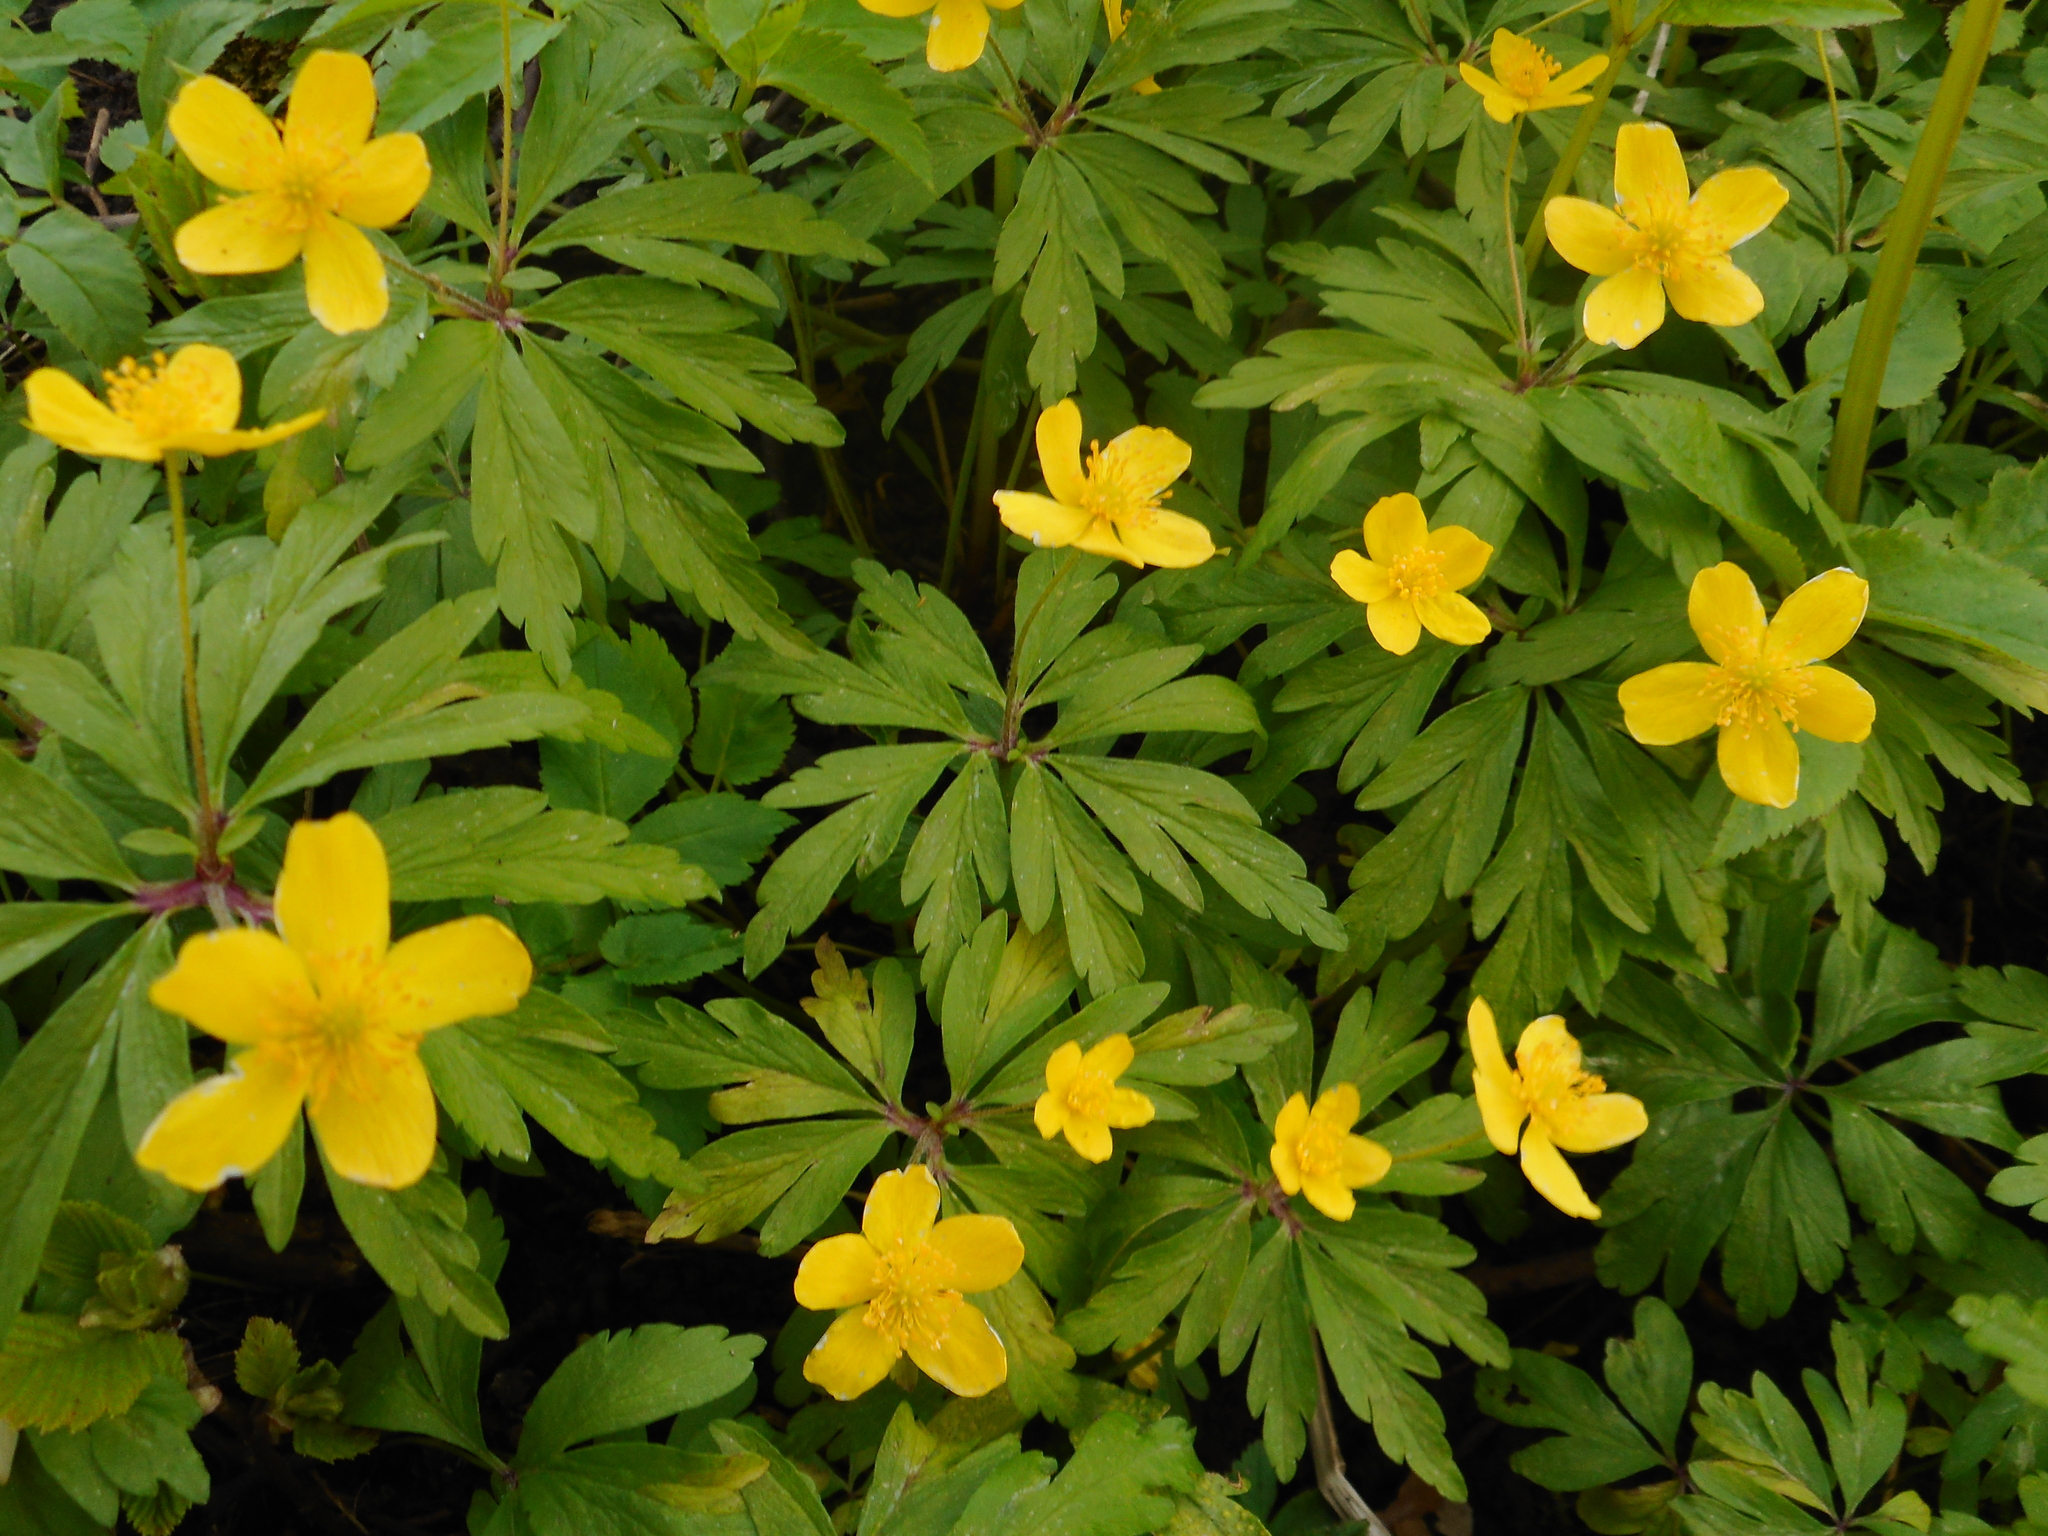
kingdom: Plantae
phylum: Tracheophyta
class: Magnoliopsida
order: Ranunculales
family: Ranunculaceae
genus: Anemone
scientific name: Anemone ranunculoides
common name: Yellow anemone
